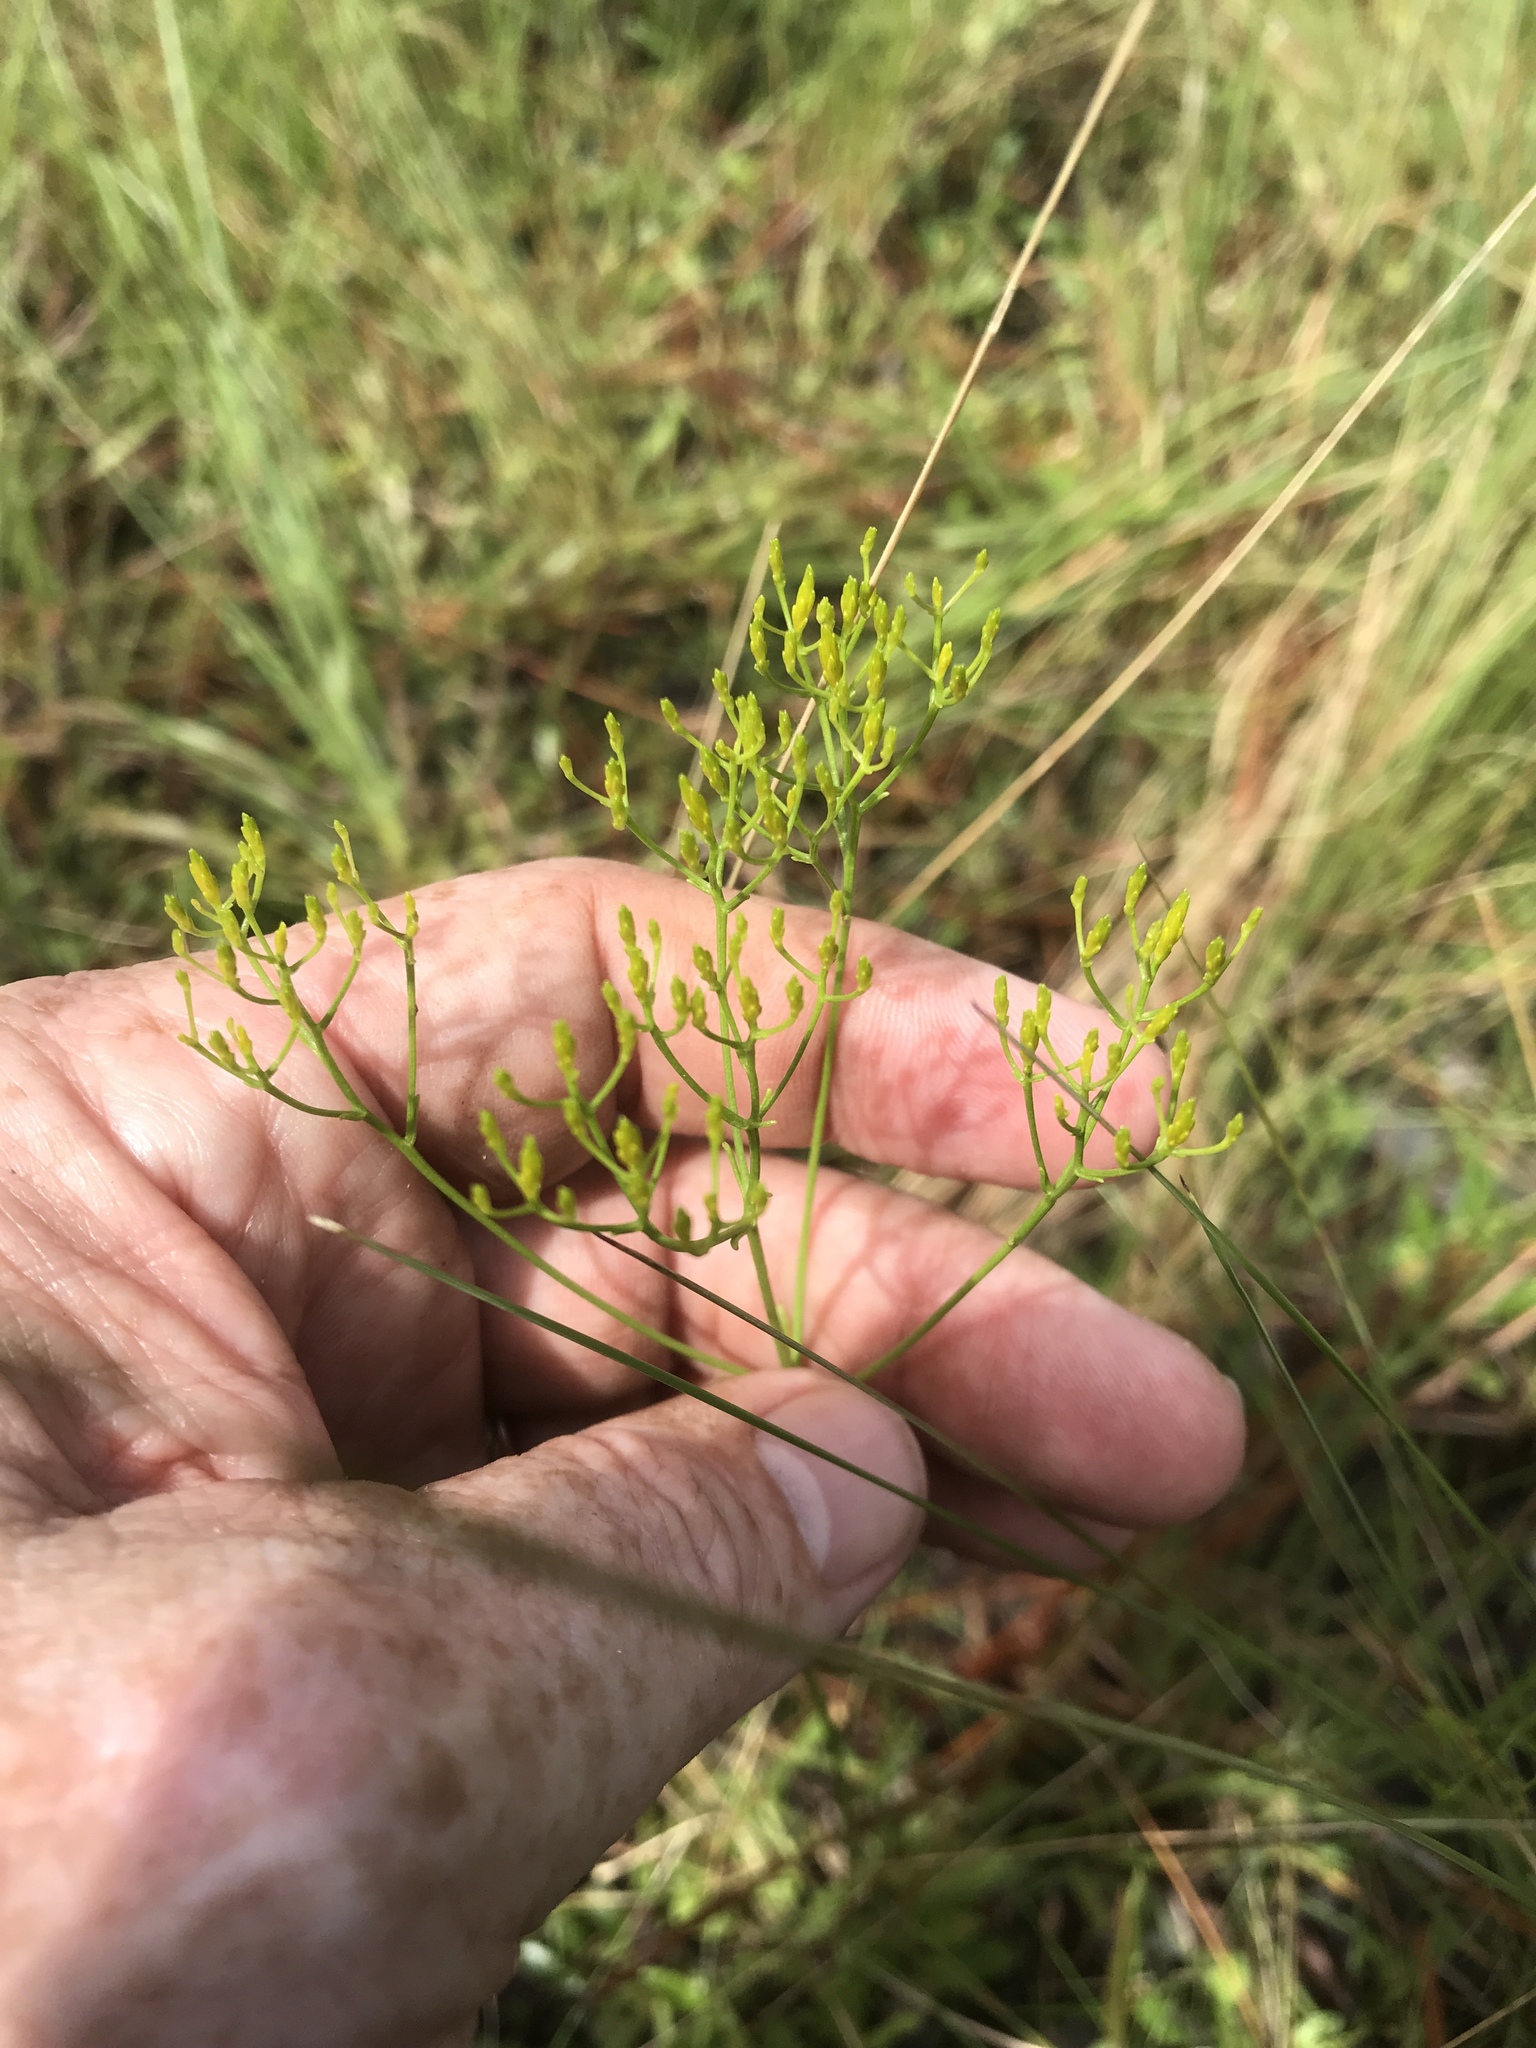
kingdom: Plantae
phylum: Tracheophyta
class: Magnoliopsida
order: Asterales
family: Asteraceae
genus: Bigelowia
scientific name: Bigelowia nudata
